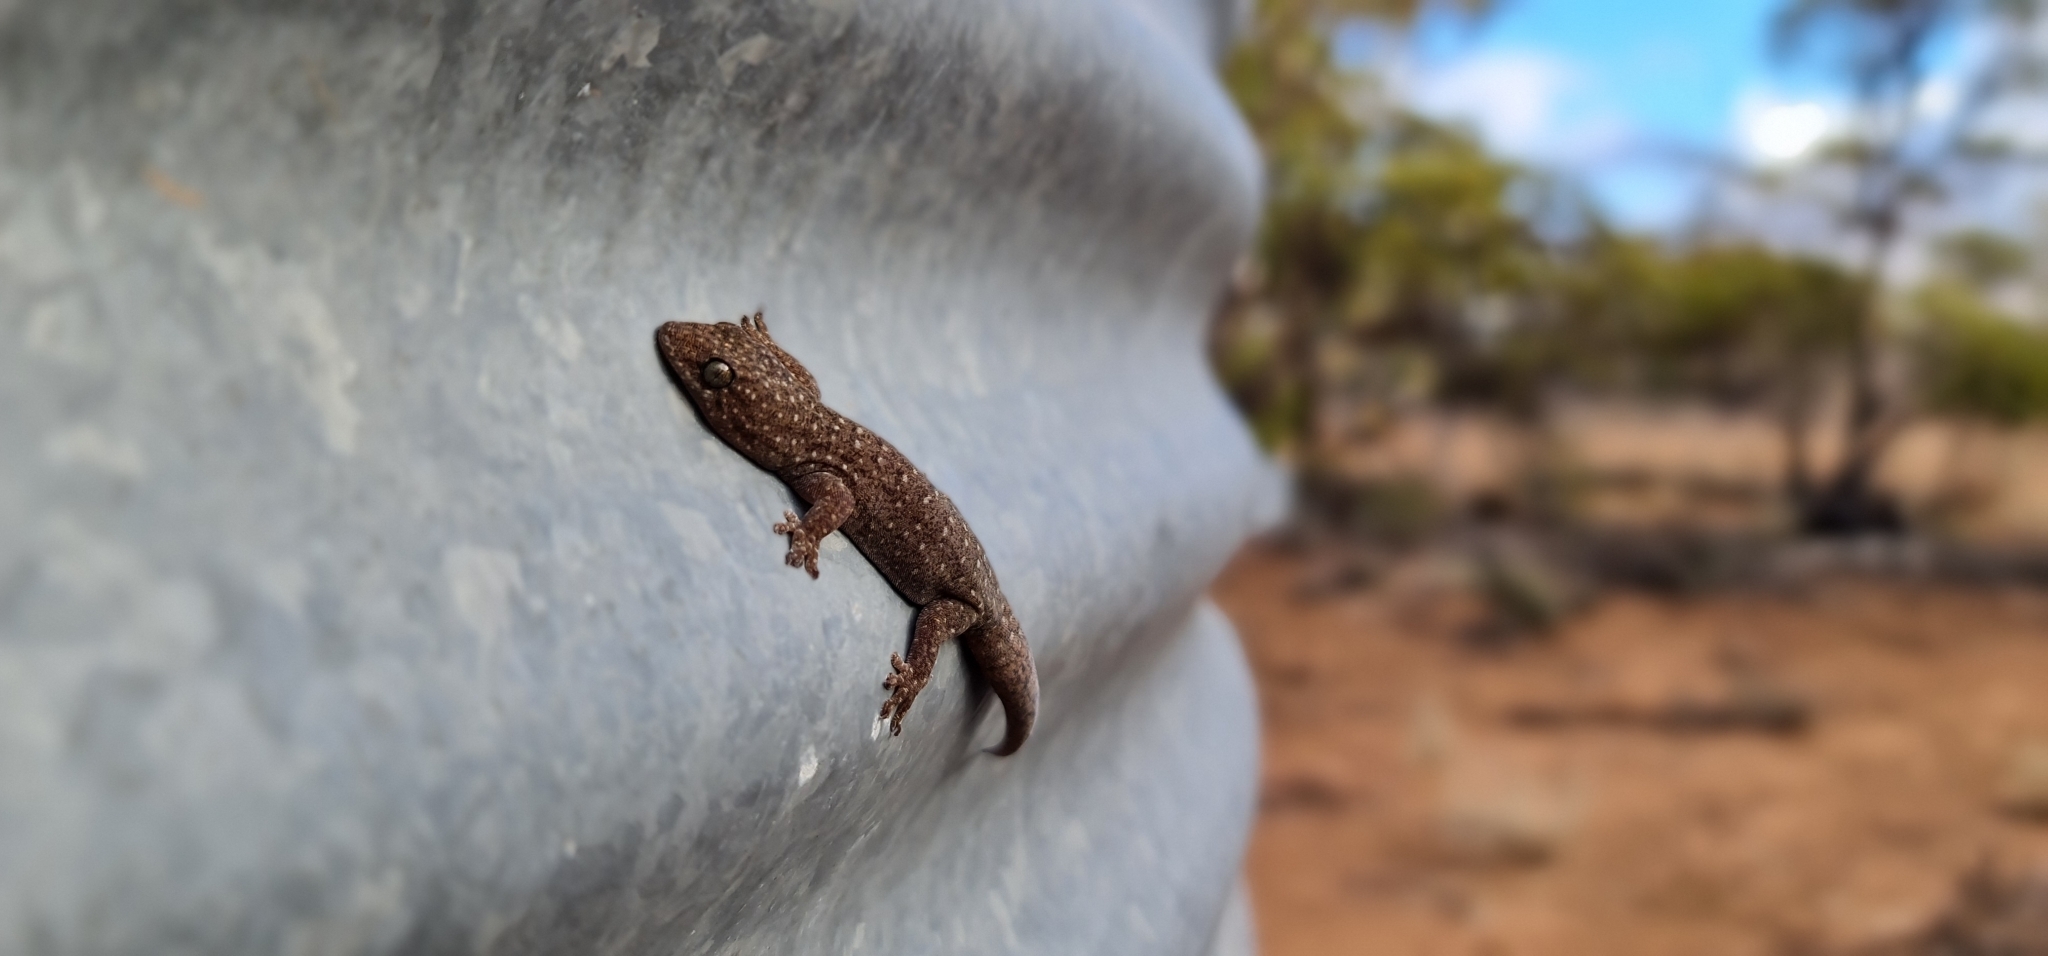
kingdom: Animalia
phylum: Chordata
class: Squamata
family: Gekkonidae
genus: Gehyra
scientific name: Gehyra lazelli
